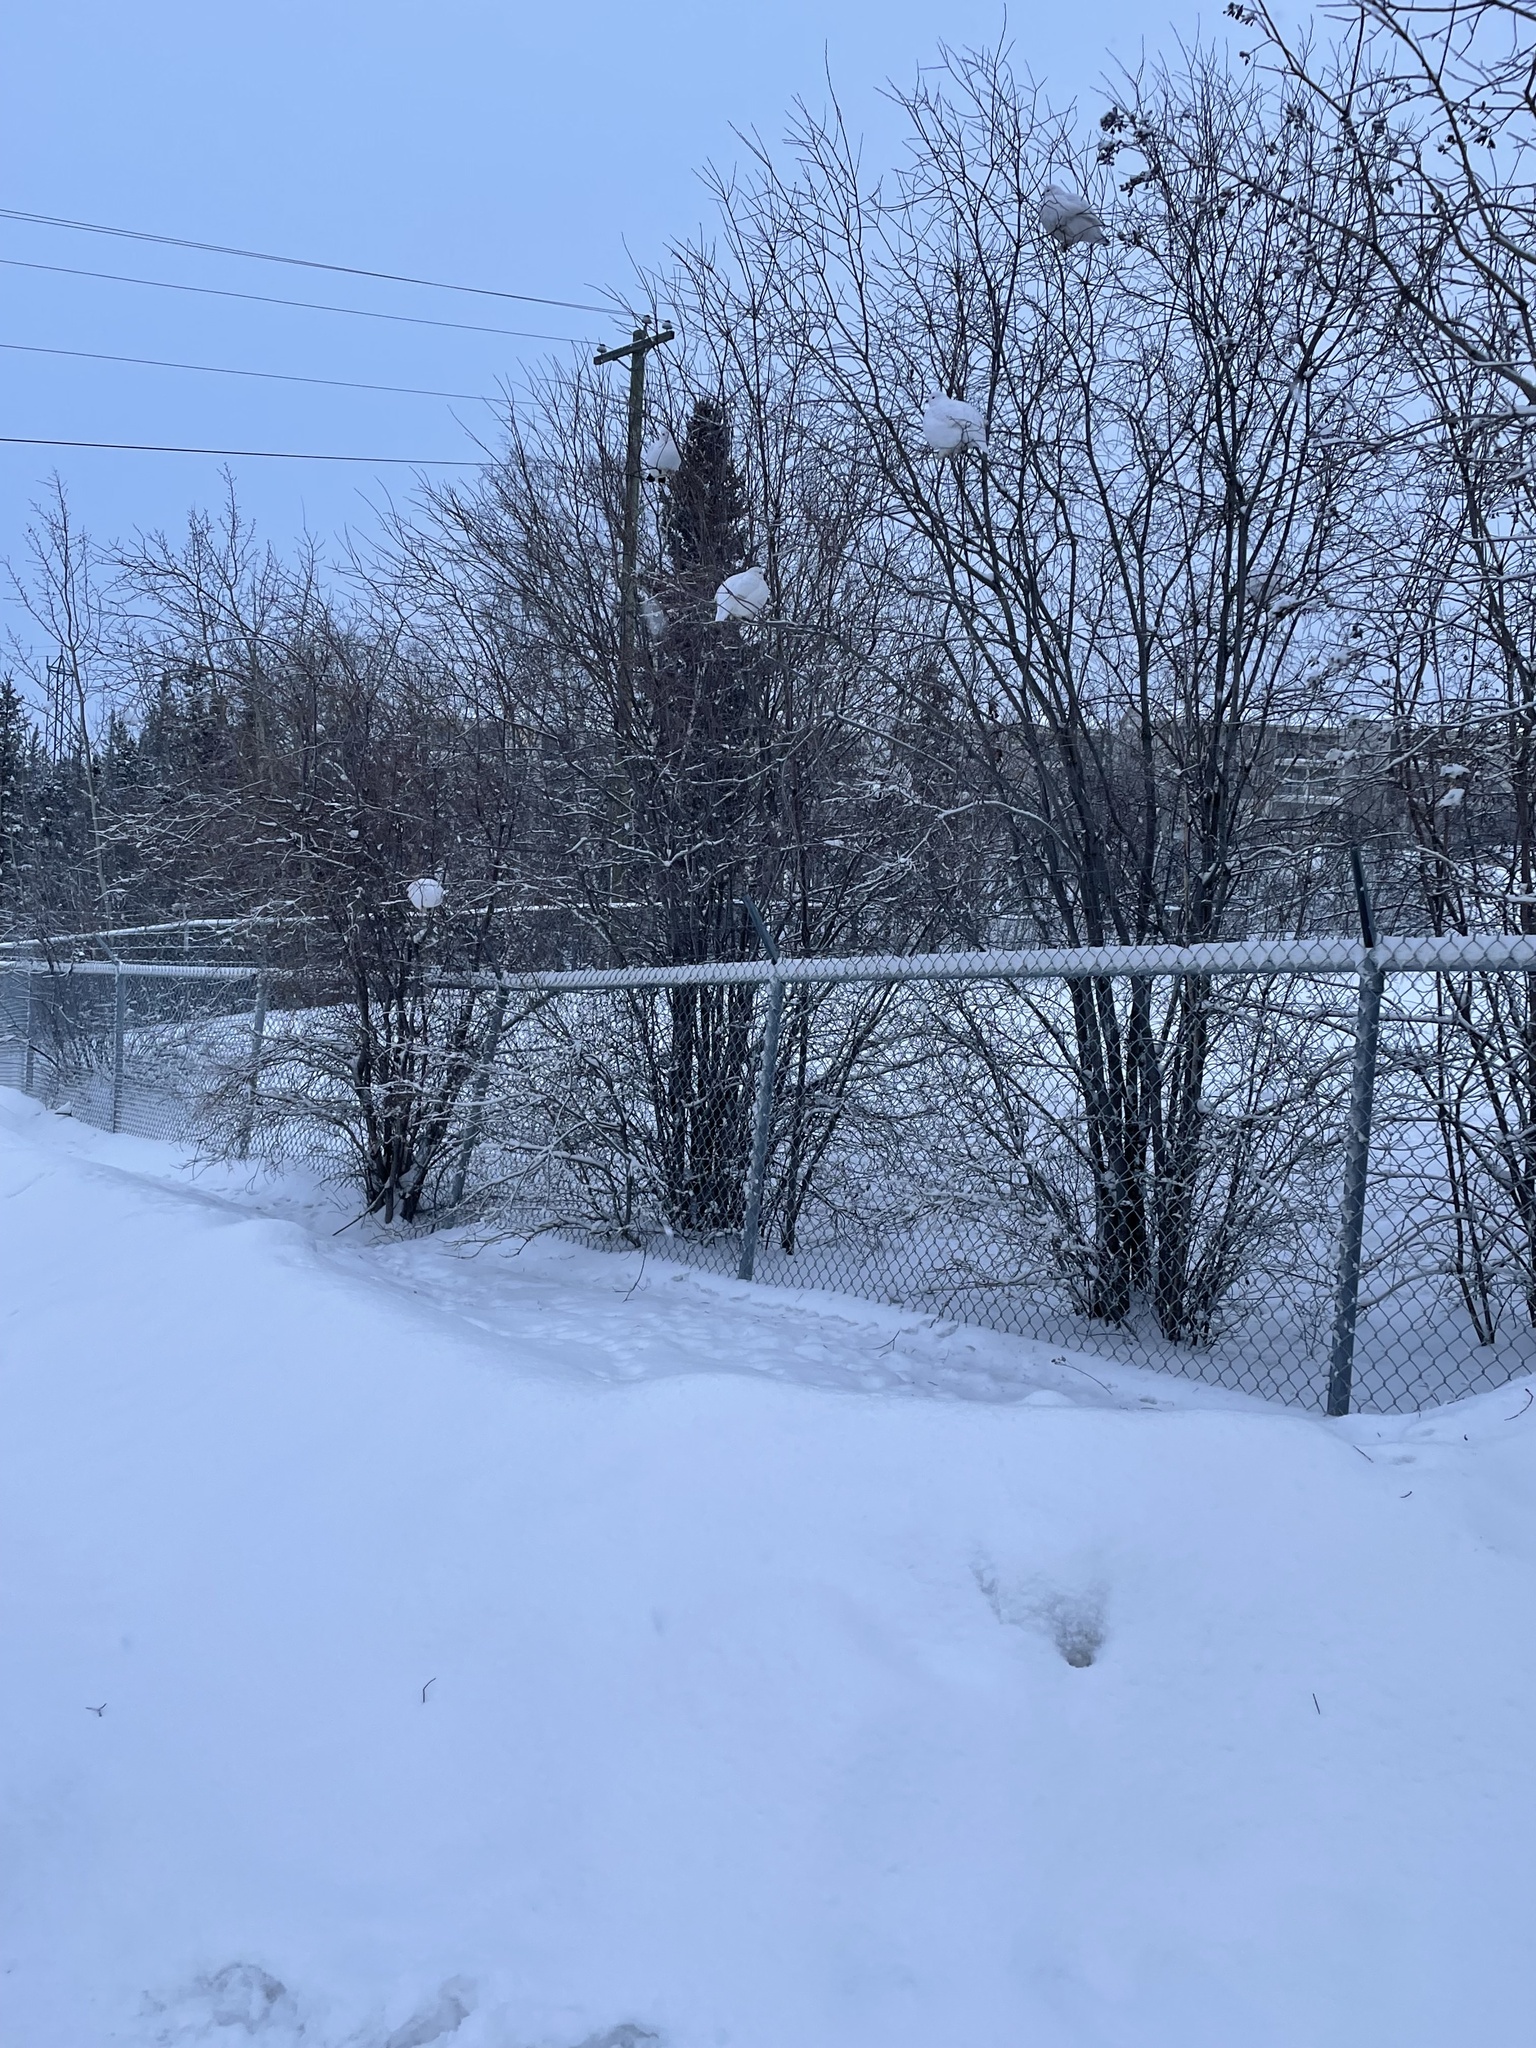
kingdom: Animalia
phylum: Chordata
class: Aves
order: Galliformes
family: Phasianidae
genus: Lagopus
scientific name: Lagopus lagopus
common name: Willow ptarmigan
